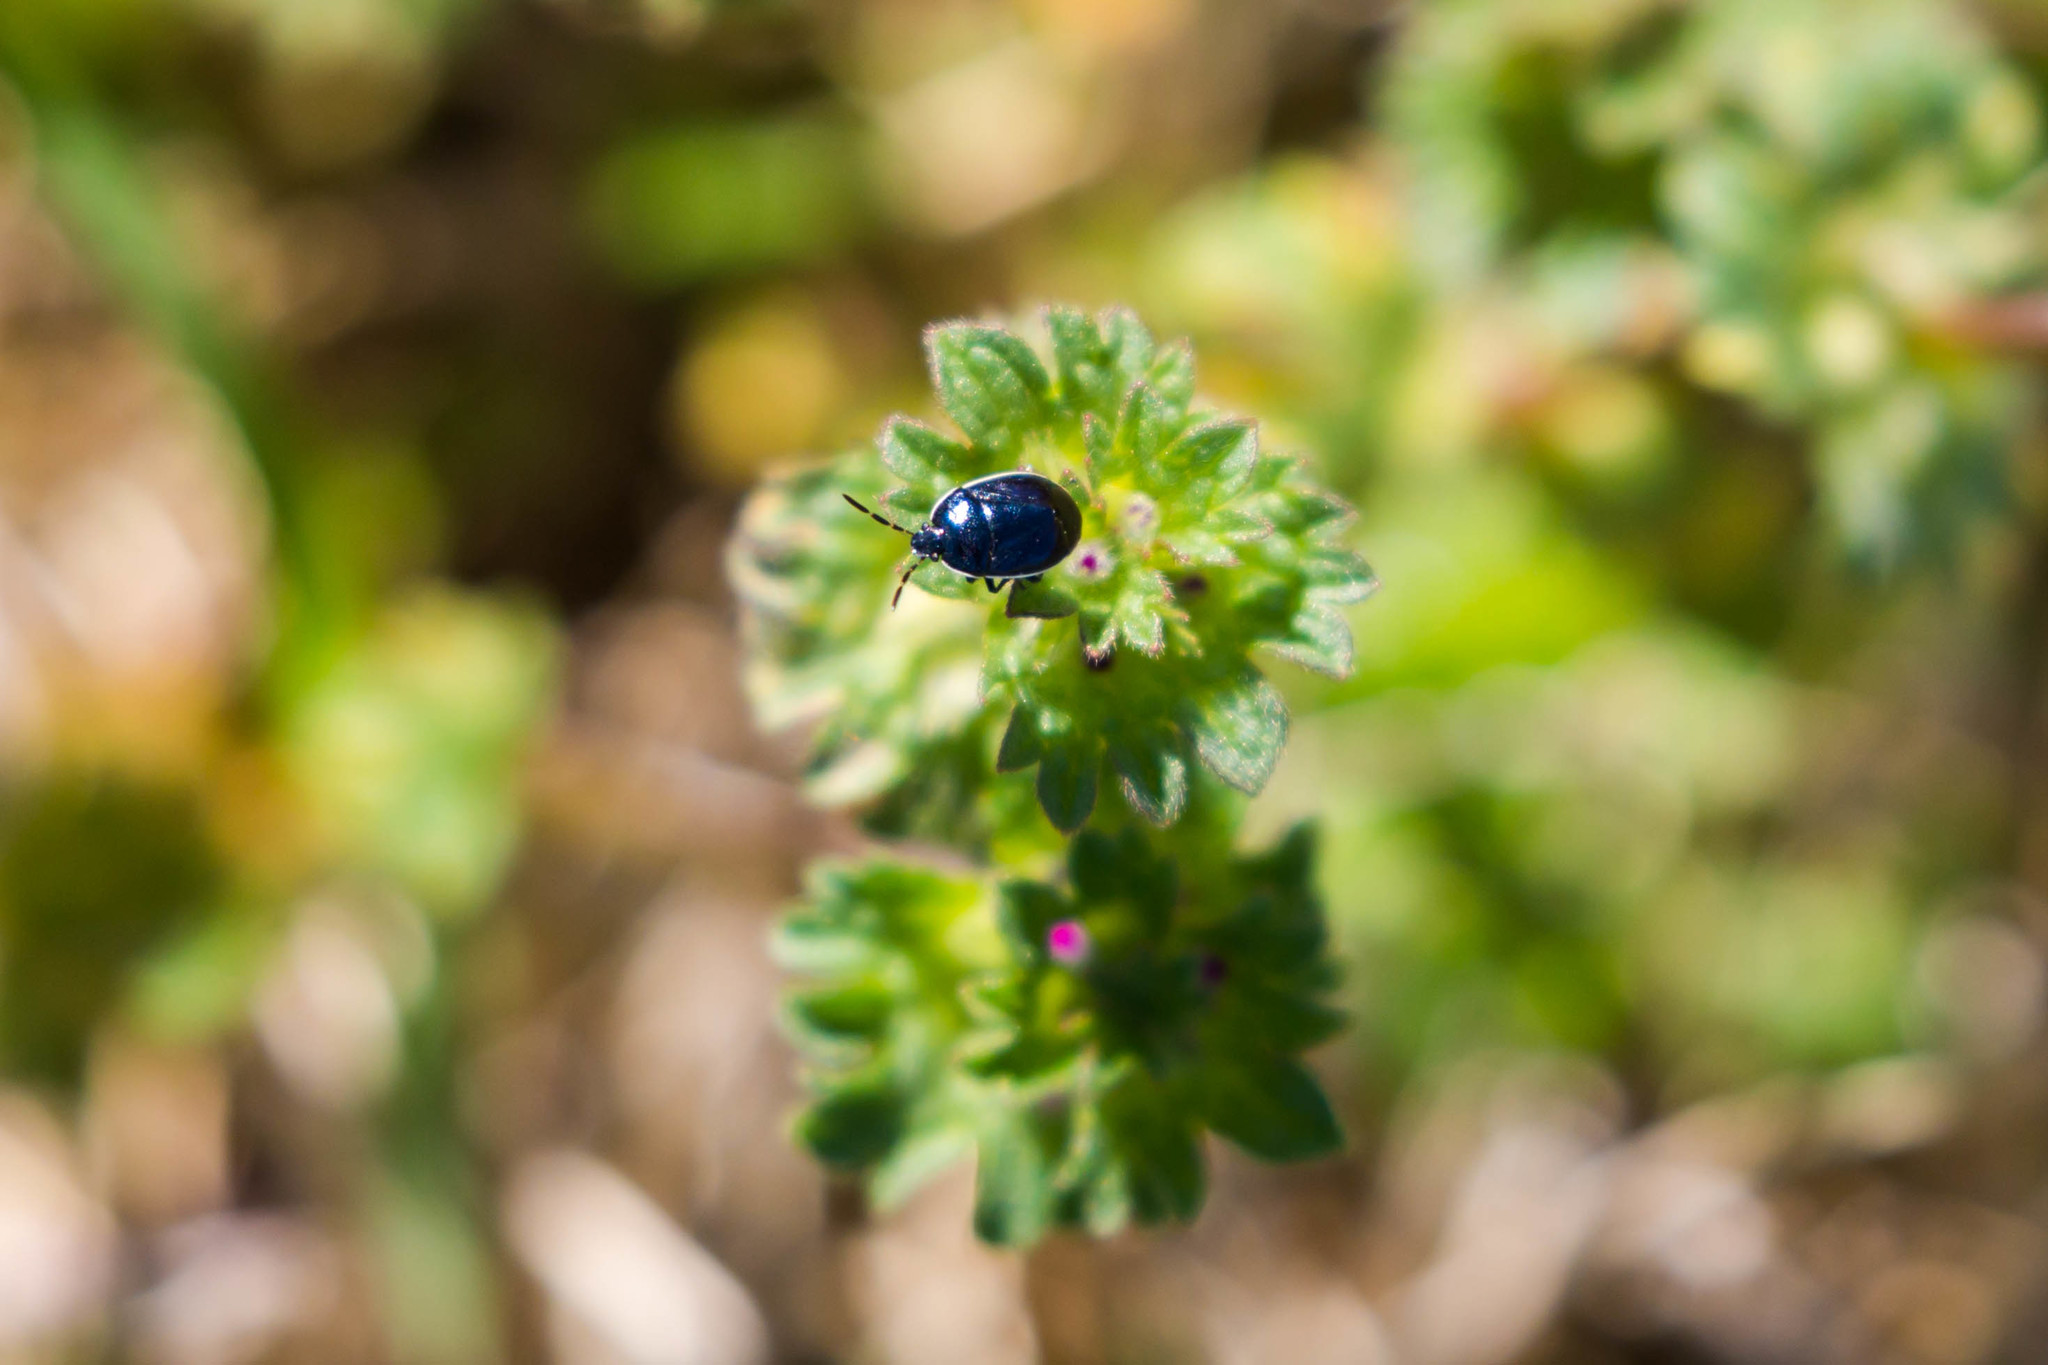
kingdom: Animalia
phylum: Arthropoda
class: Insecta
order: Hemiptera
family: Cydnidae
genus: Sehirus
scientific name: Sehirus cinctus
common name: White-margined burrower bug
